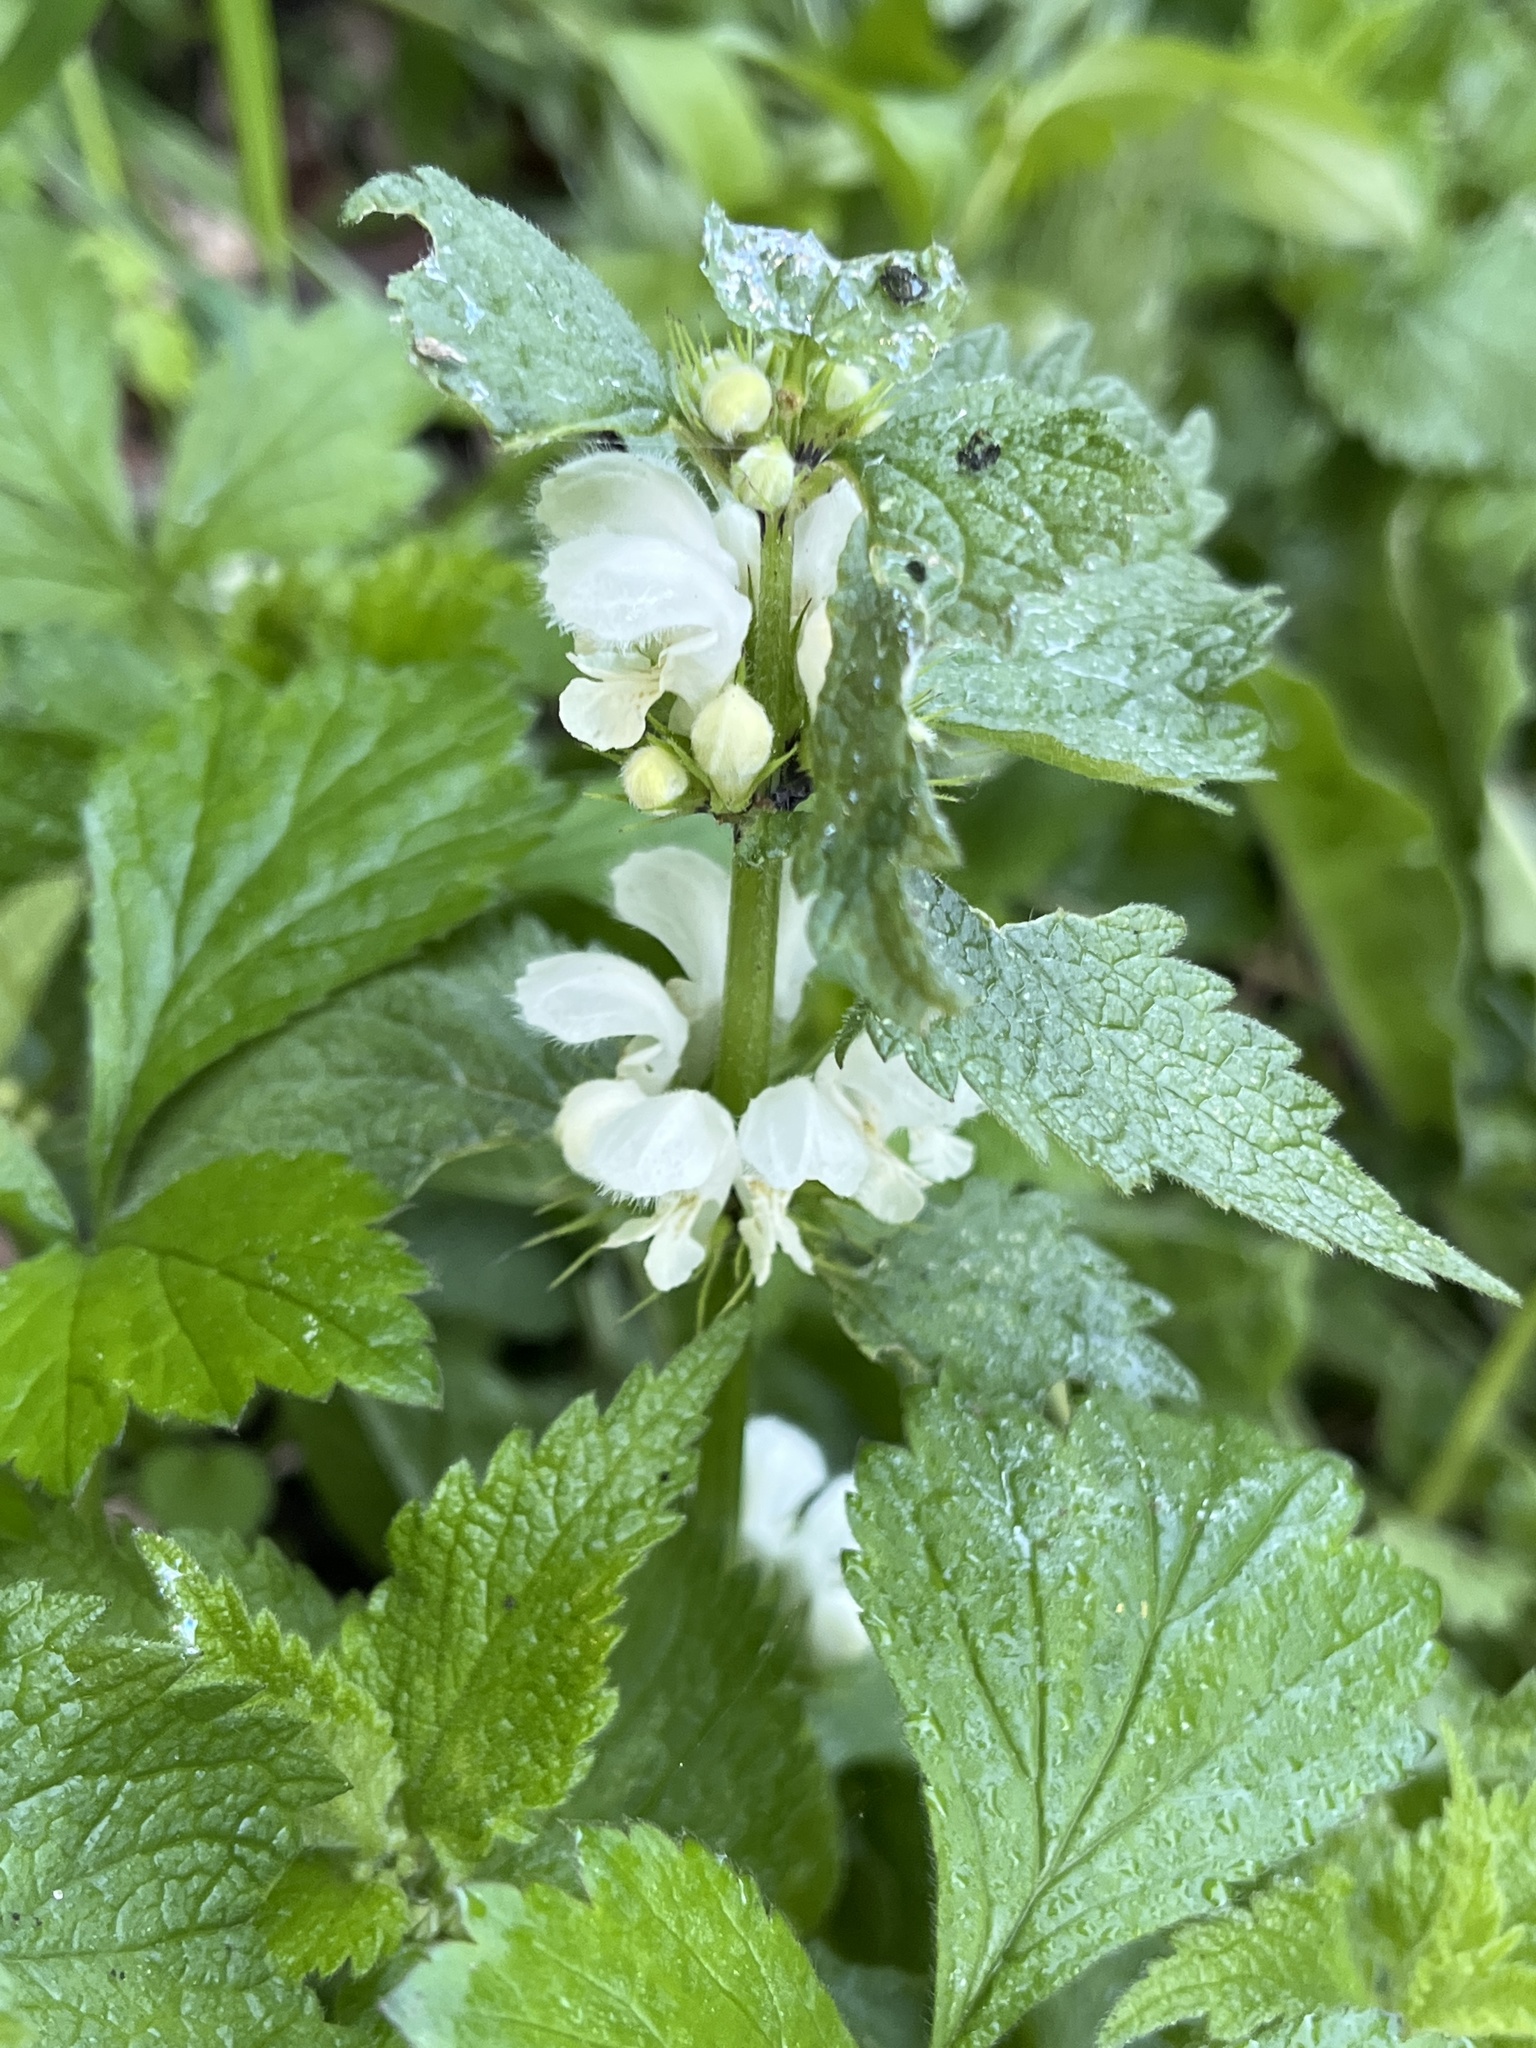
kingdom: Plantae
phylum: Tracheophyta
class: Magnoliopsida
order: Lamiales
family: Lamiaceae
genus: Lamium
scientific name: Lamium album
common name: White dead-nettle
